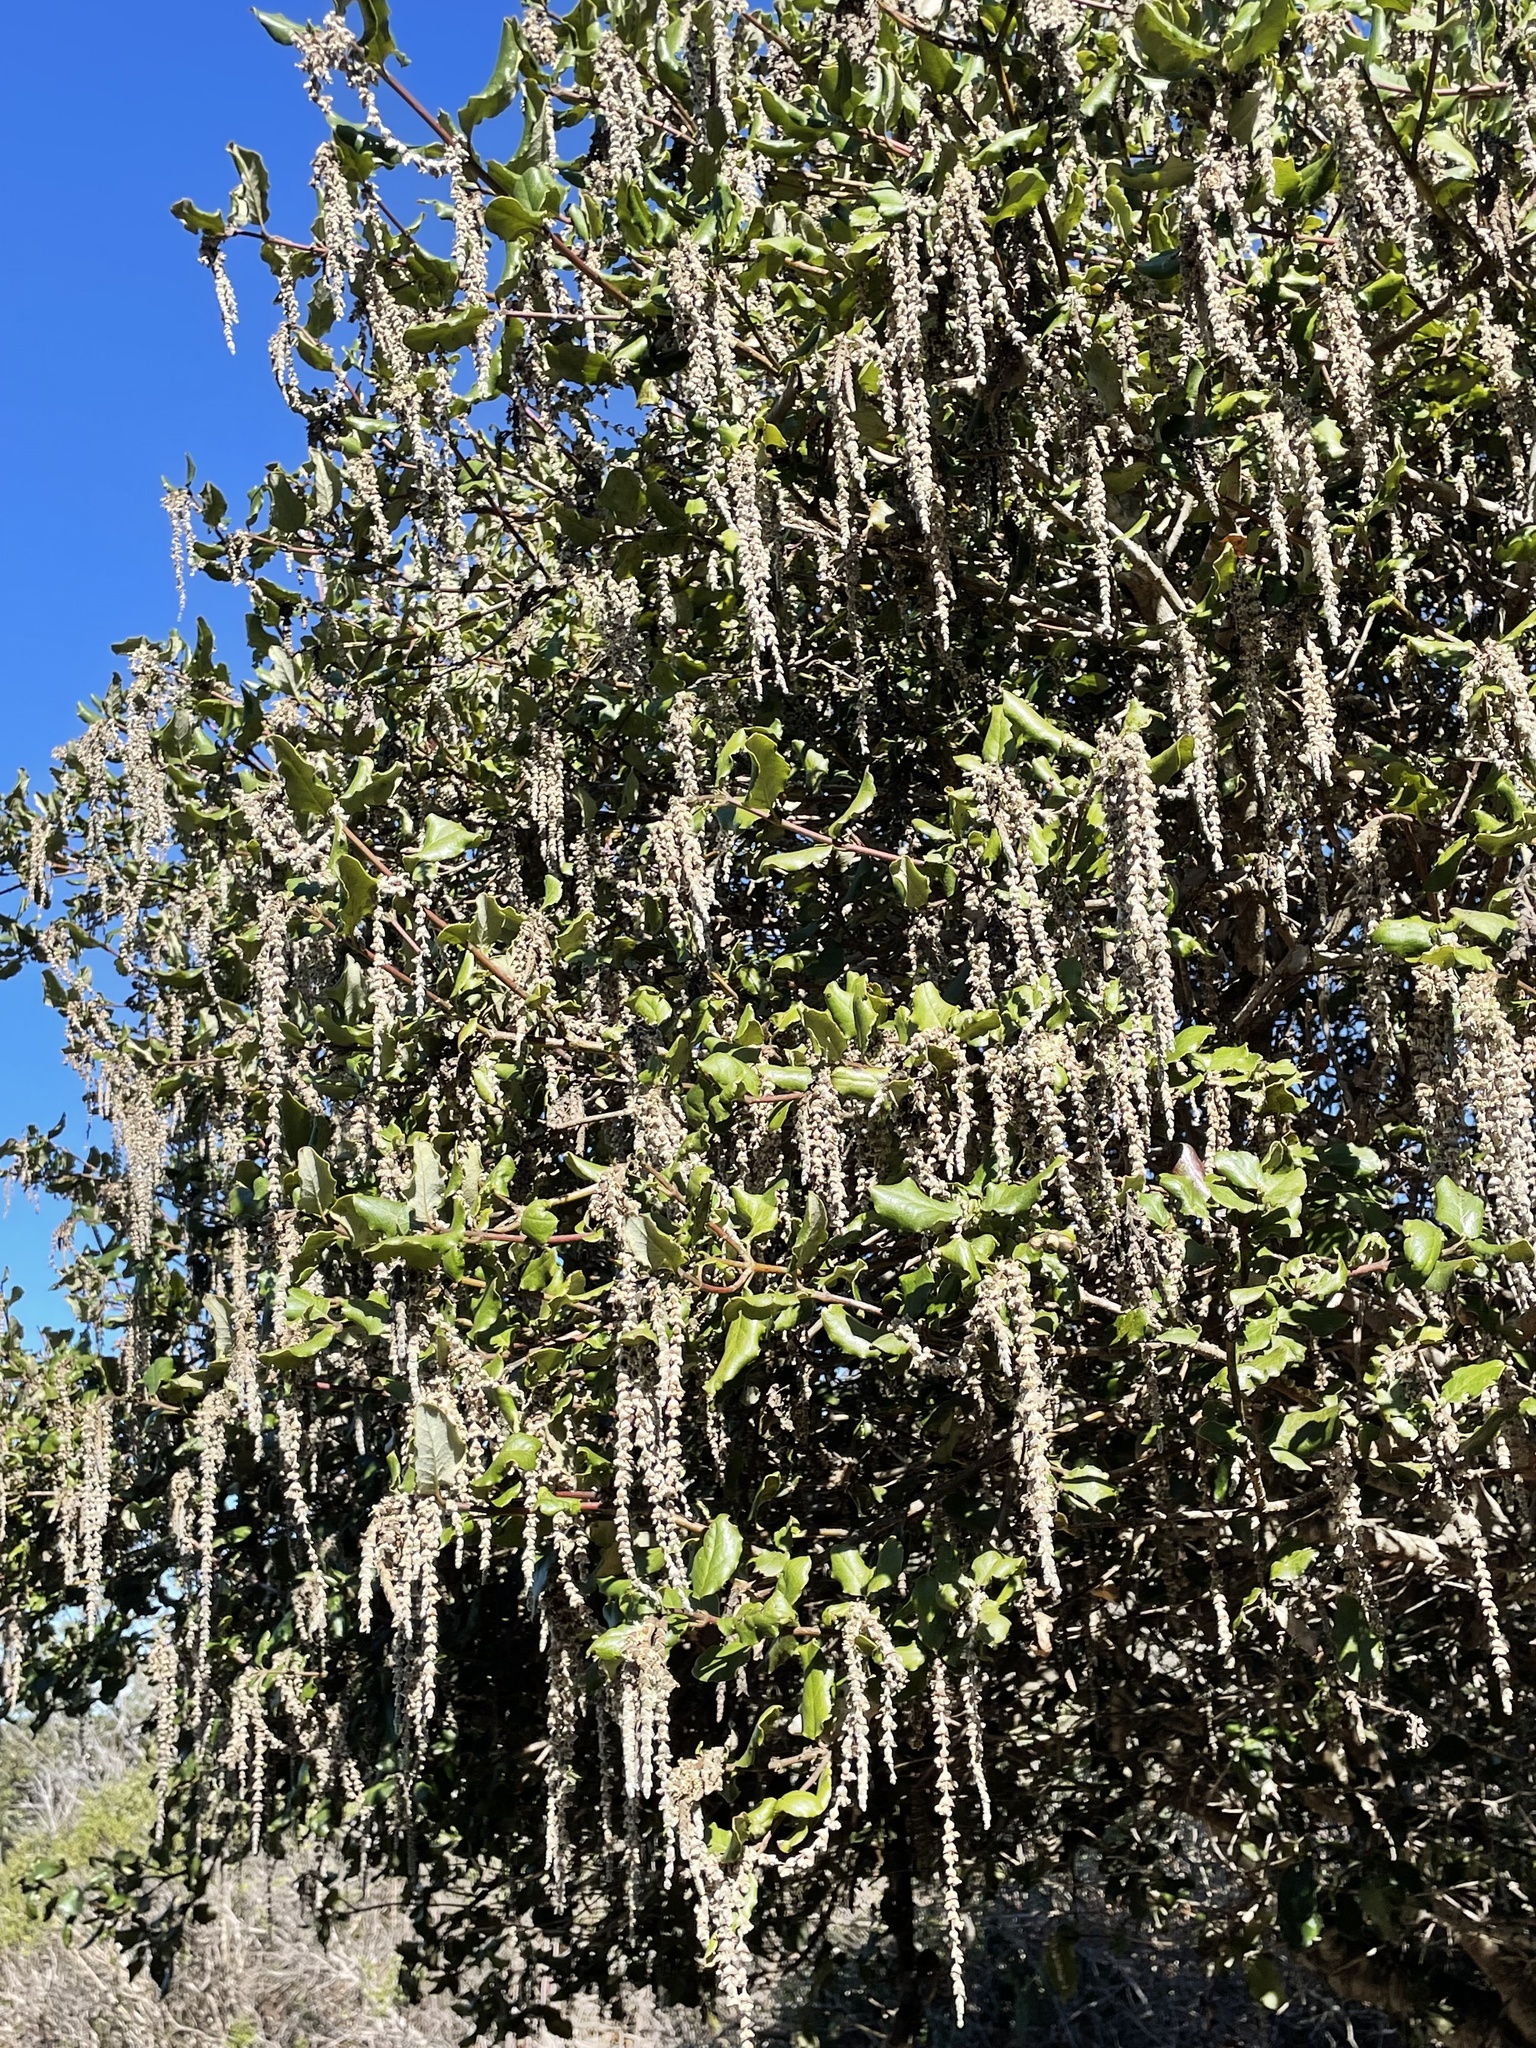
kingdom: Plantae
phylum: Tracheophyta
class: Magnoliopsida
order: Garryales
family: Garryaceae
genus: Garrya
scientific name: Garrya elliptica
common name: Silk-tassel
